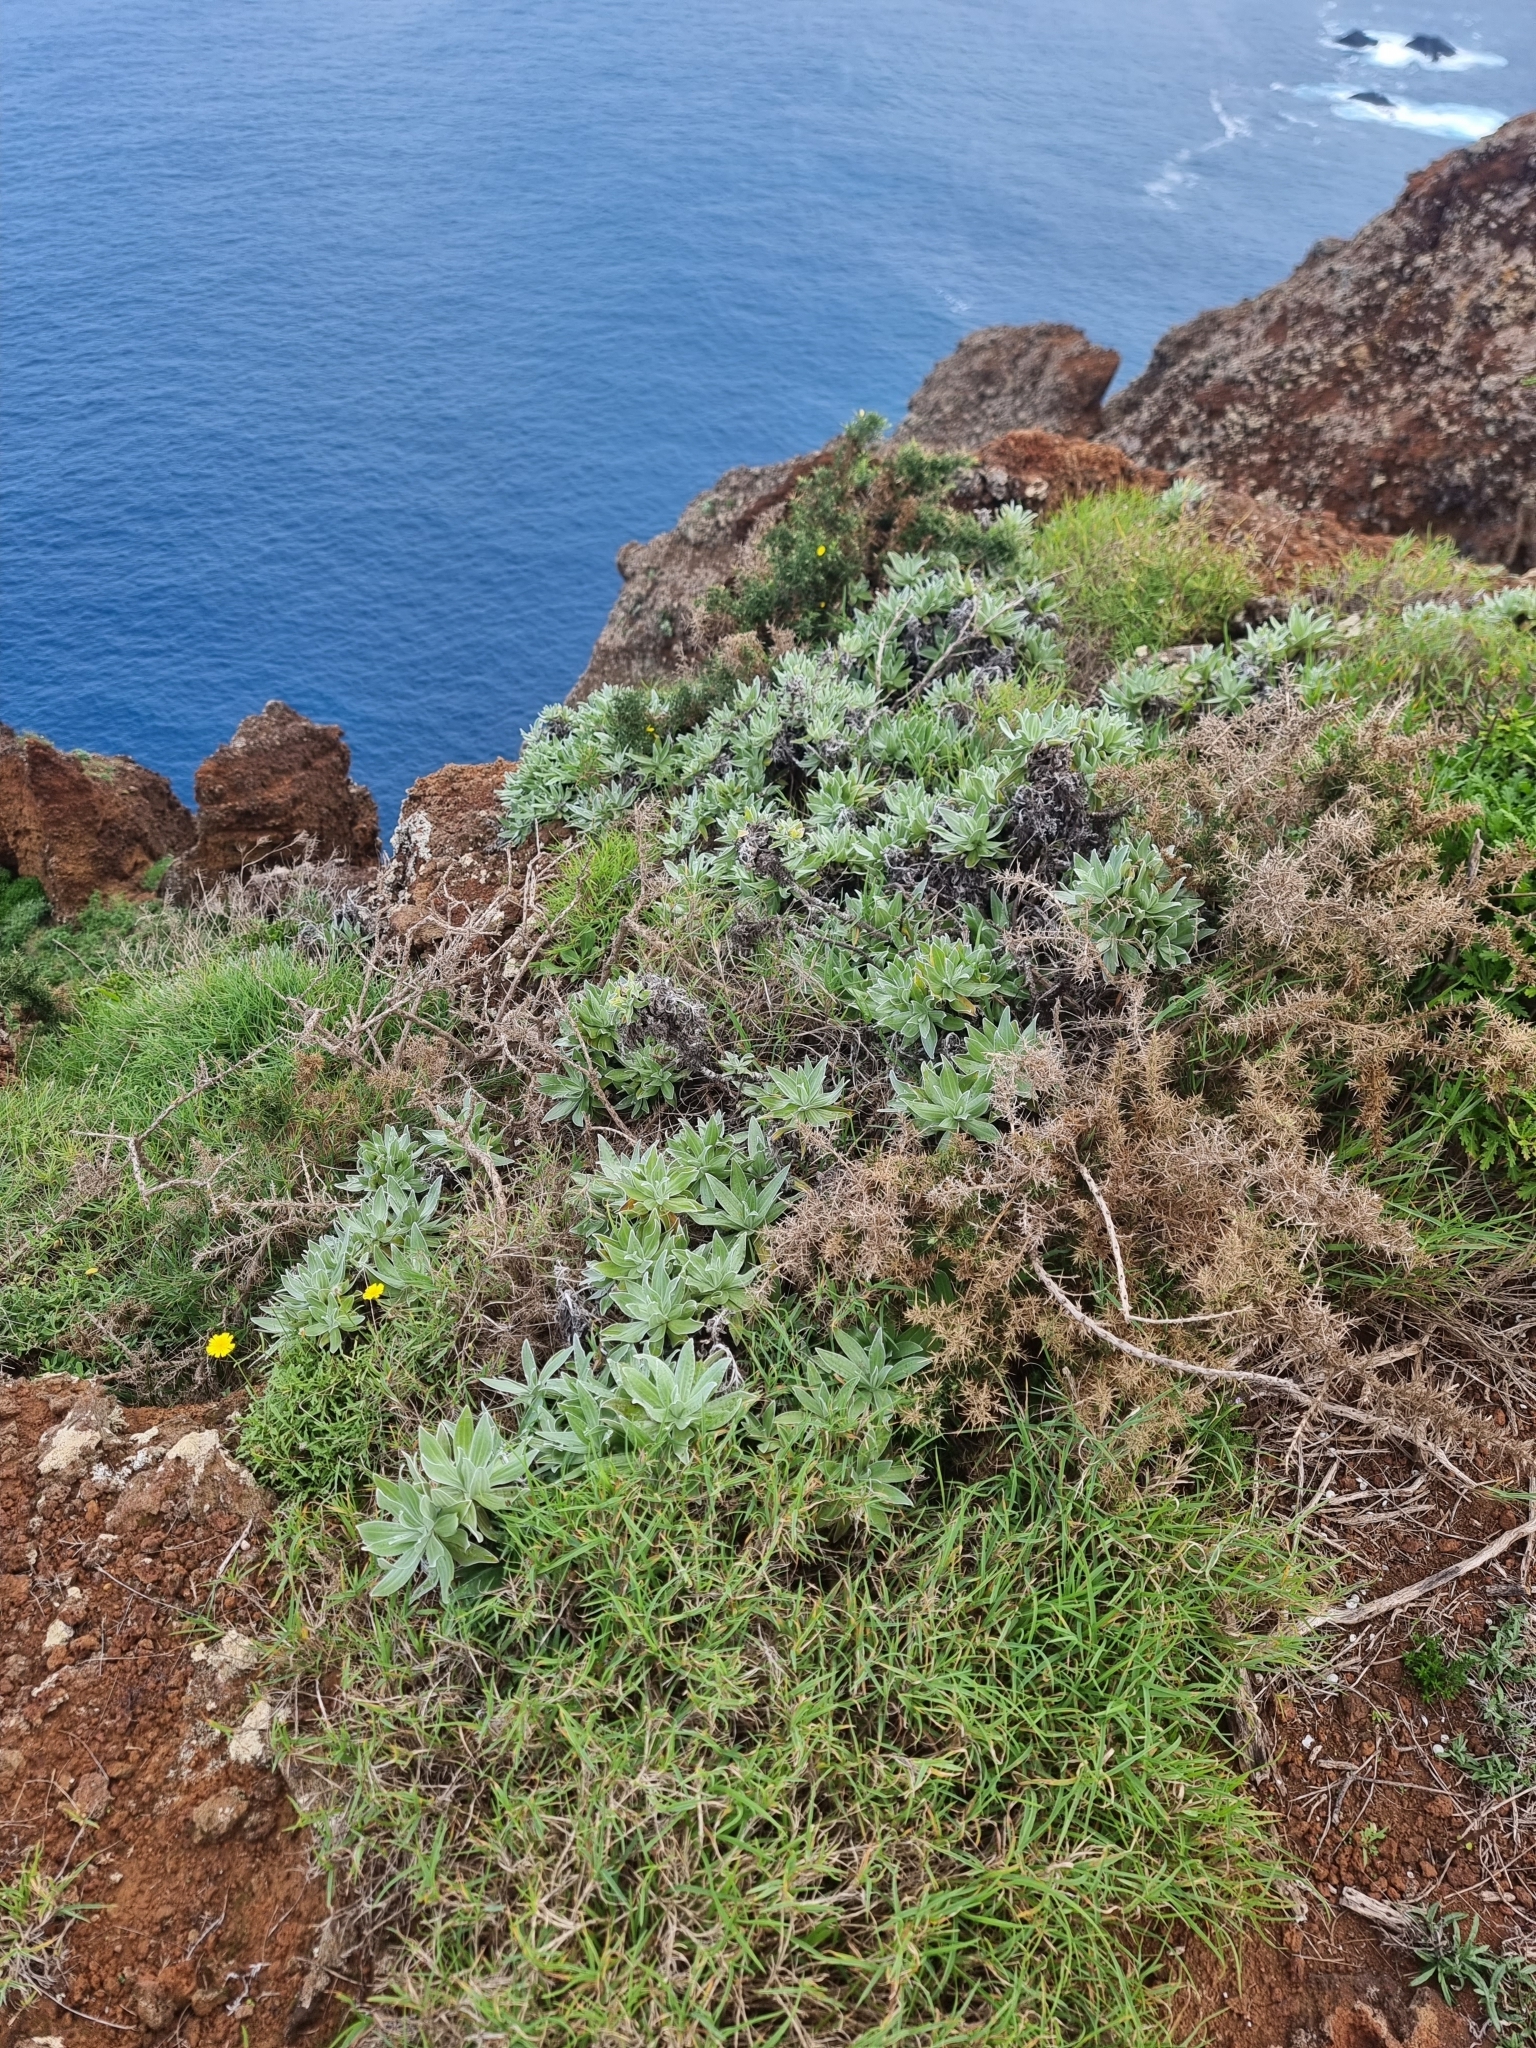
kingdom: Plantae
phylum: Tracheophyta
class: Magnoliopsida
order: Asterales
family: Asteraceae
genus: Helichrysum
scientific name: Helichrysum devium
